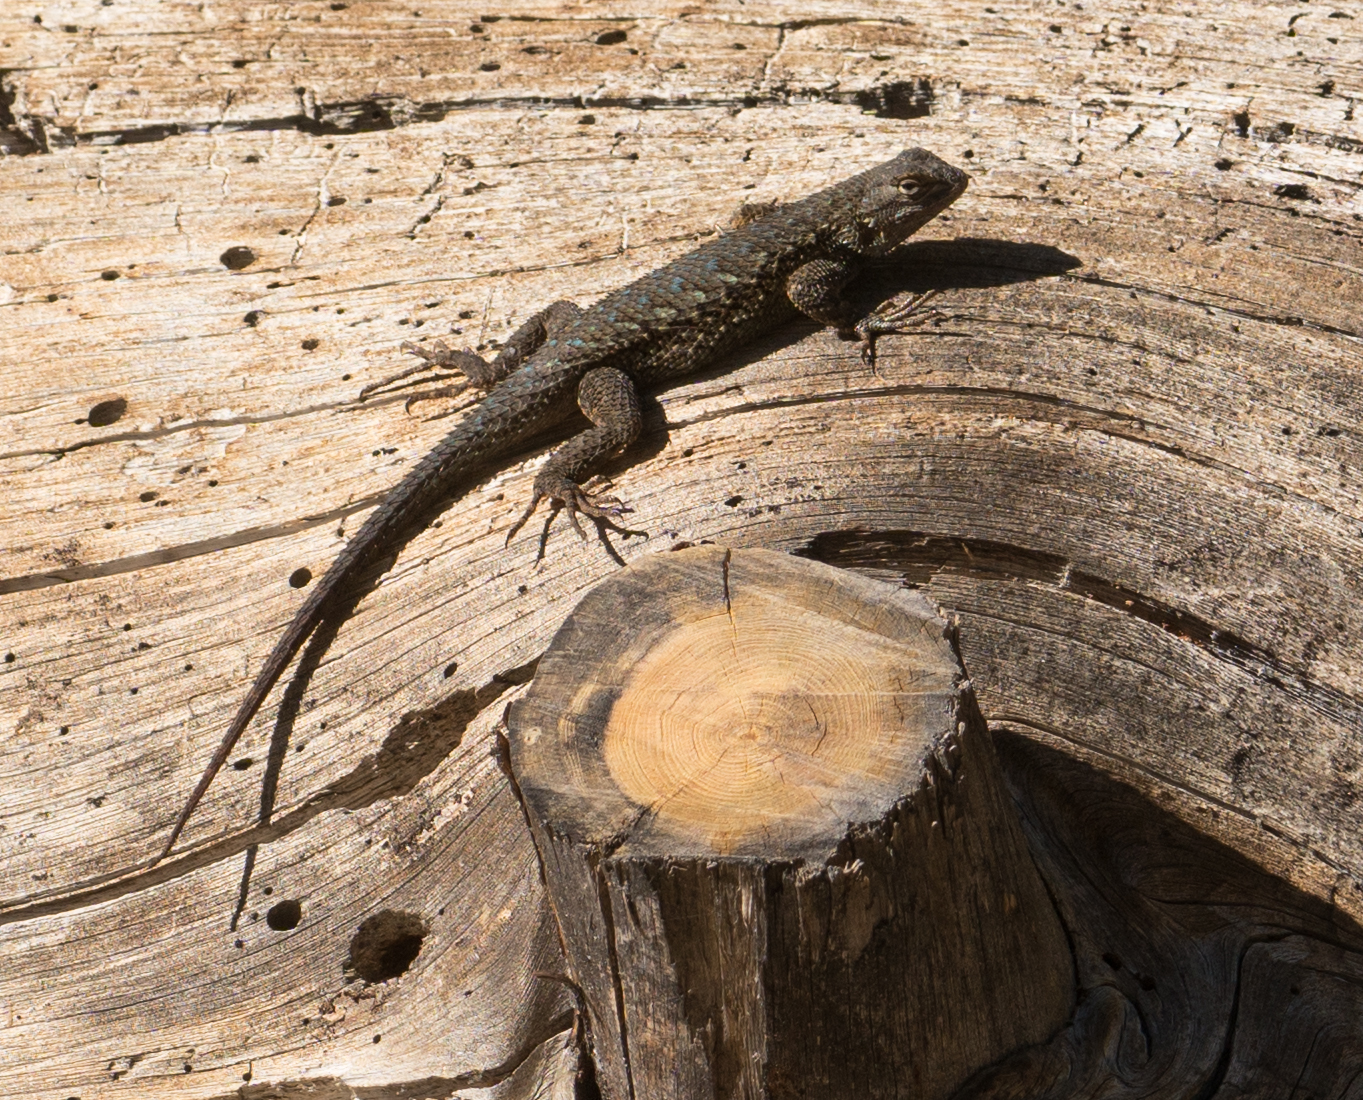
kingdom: Animalia
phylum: Chordata
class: Squamata
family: Phrynosomatidae
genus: Sceloporus
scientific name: Sceloporus occidentalis
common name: Western fence lizard
